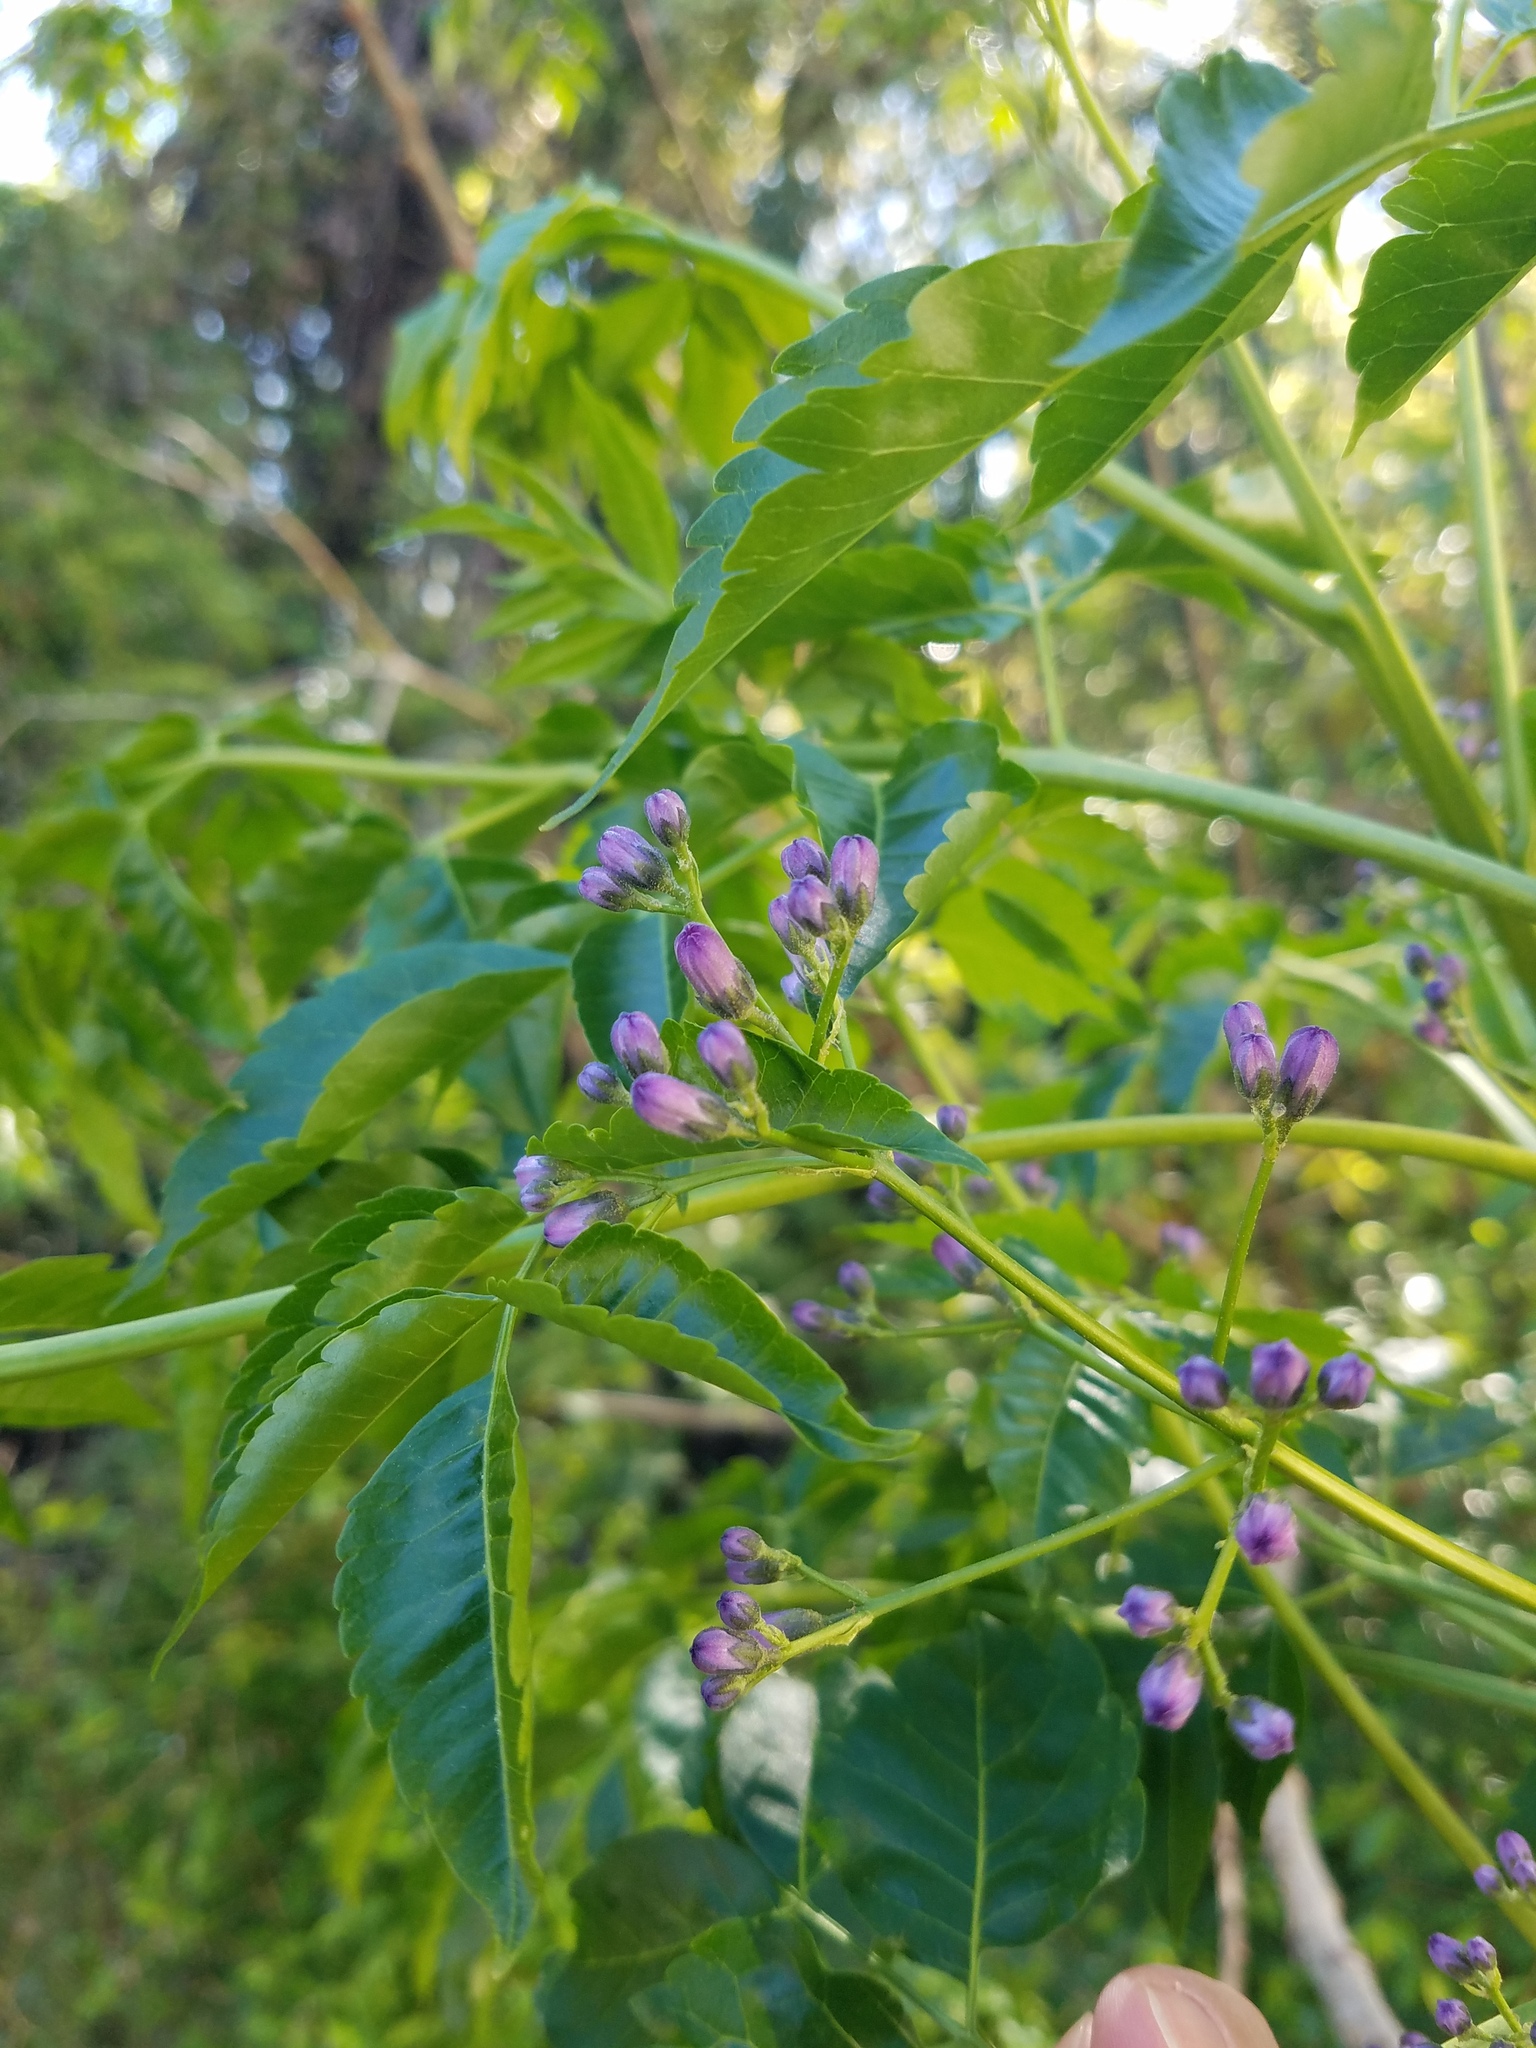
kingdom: Plantae
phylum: Tracheophyta
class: Magnoliopsida
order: Sapindales
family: Meliaceae
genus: Melia
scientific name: Melia azedarach
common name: Chinaberrytree
